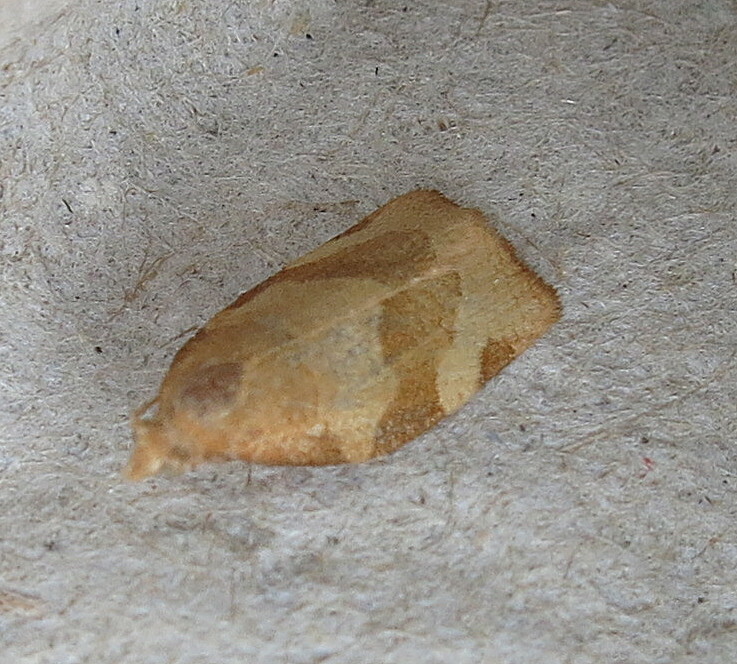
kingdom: Animalia
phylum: Arthropoda
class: Insecta
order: Lepidoptera
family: Tortricidae
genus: Pandemis
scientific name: Pandemis cerasana
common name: Barred fruit-tree tortrix
